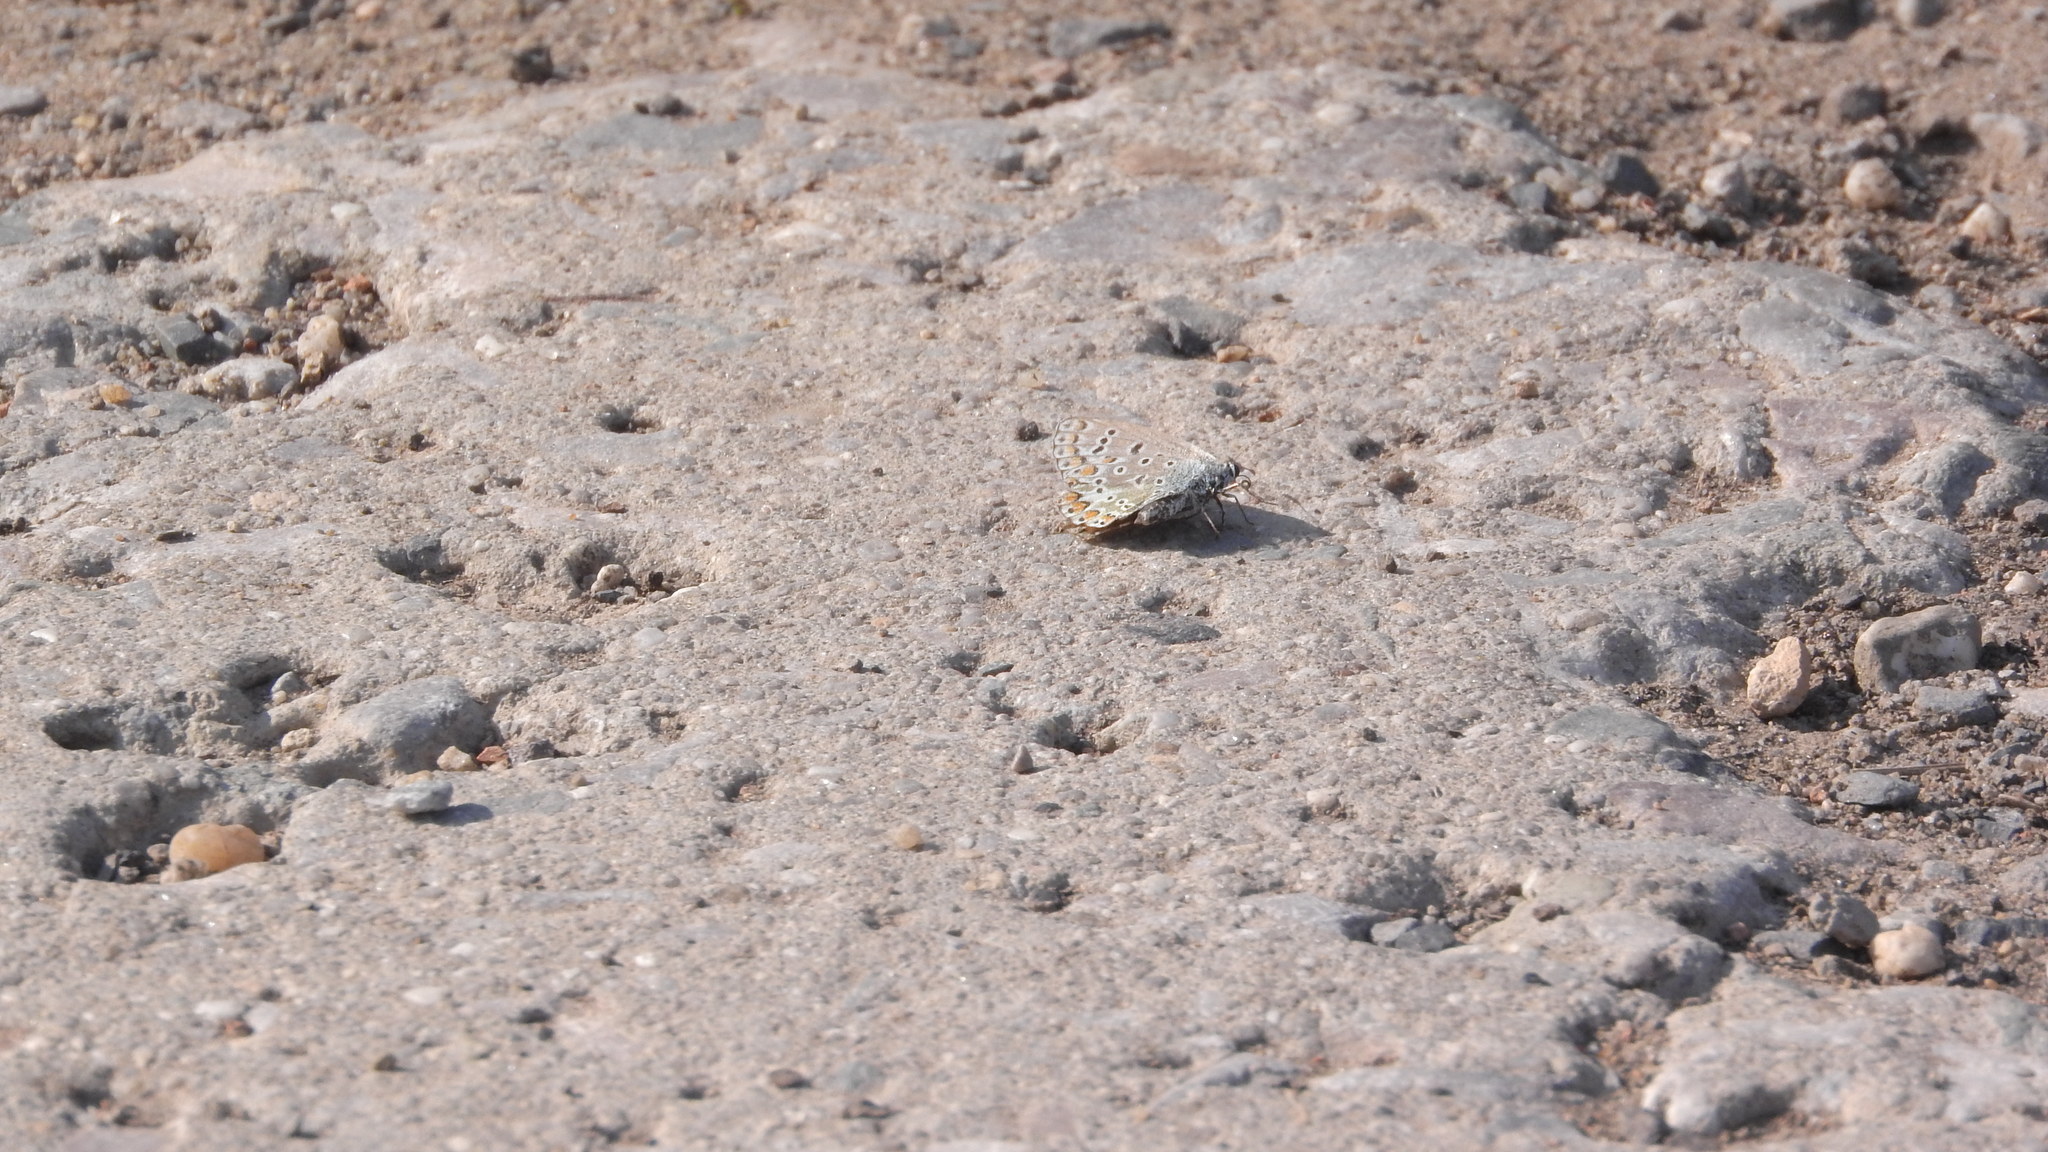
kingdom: Animalia
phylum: Arthropoda
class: Insecta
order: Lepidoptera
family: Lycaenidae
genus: Polyommatus
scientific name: Polyommatus icarus
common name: Common blue
